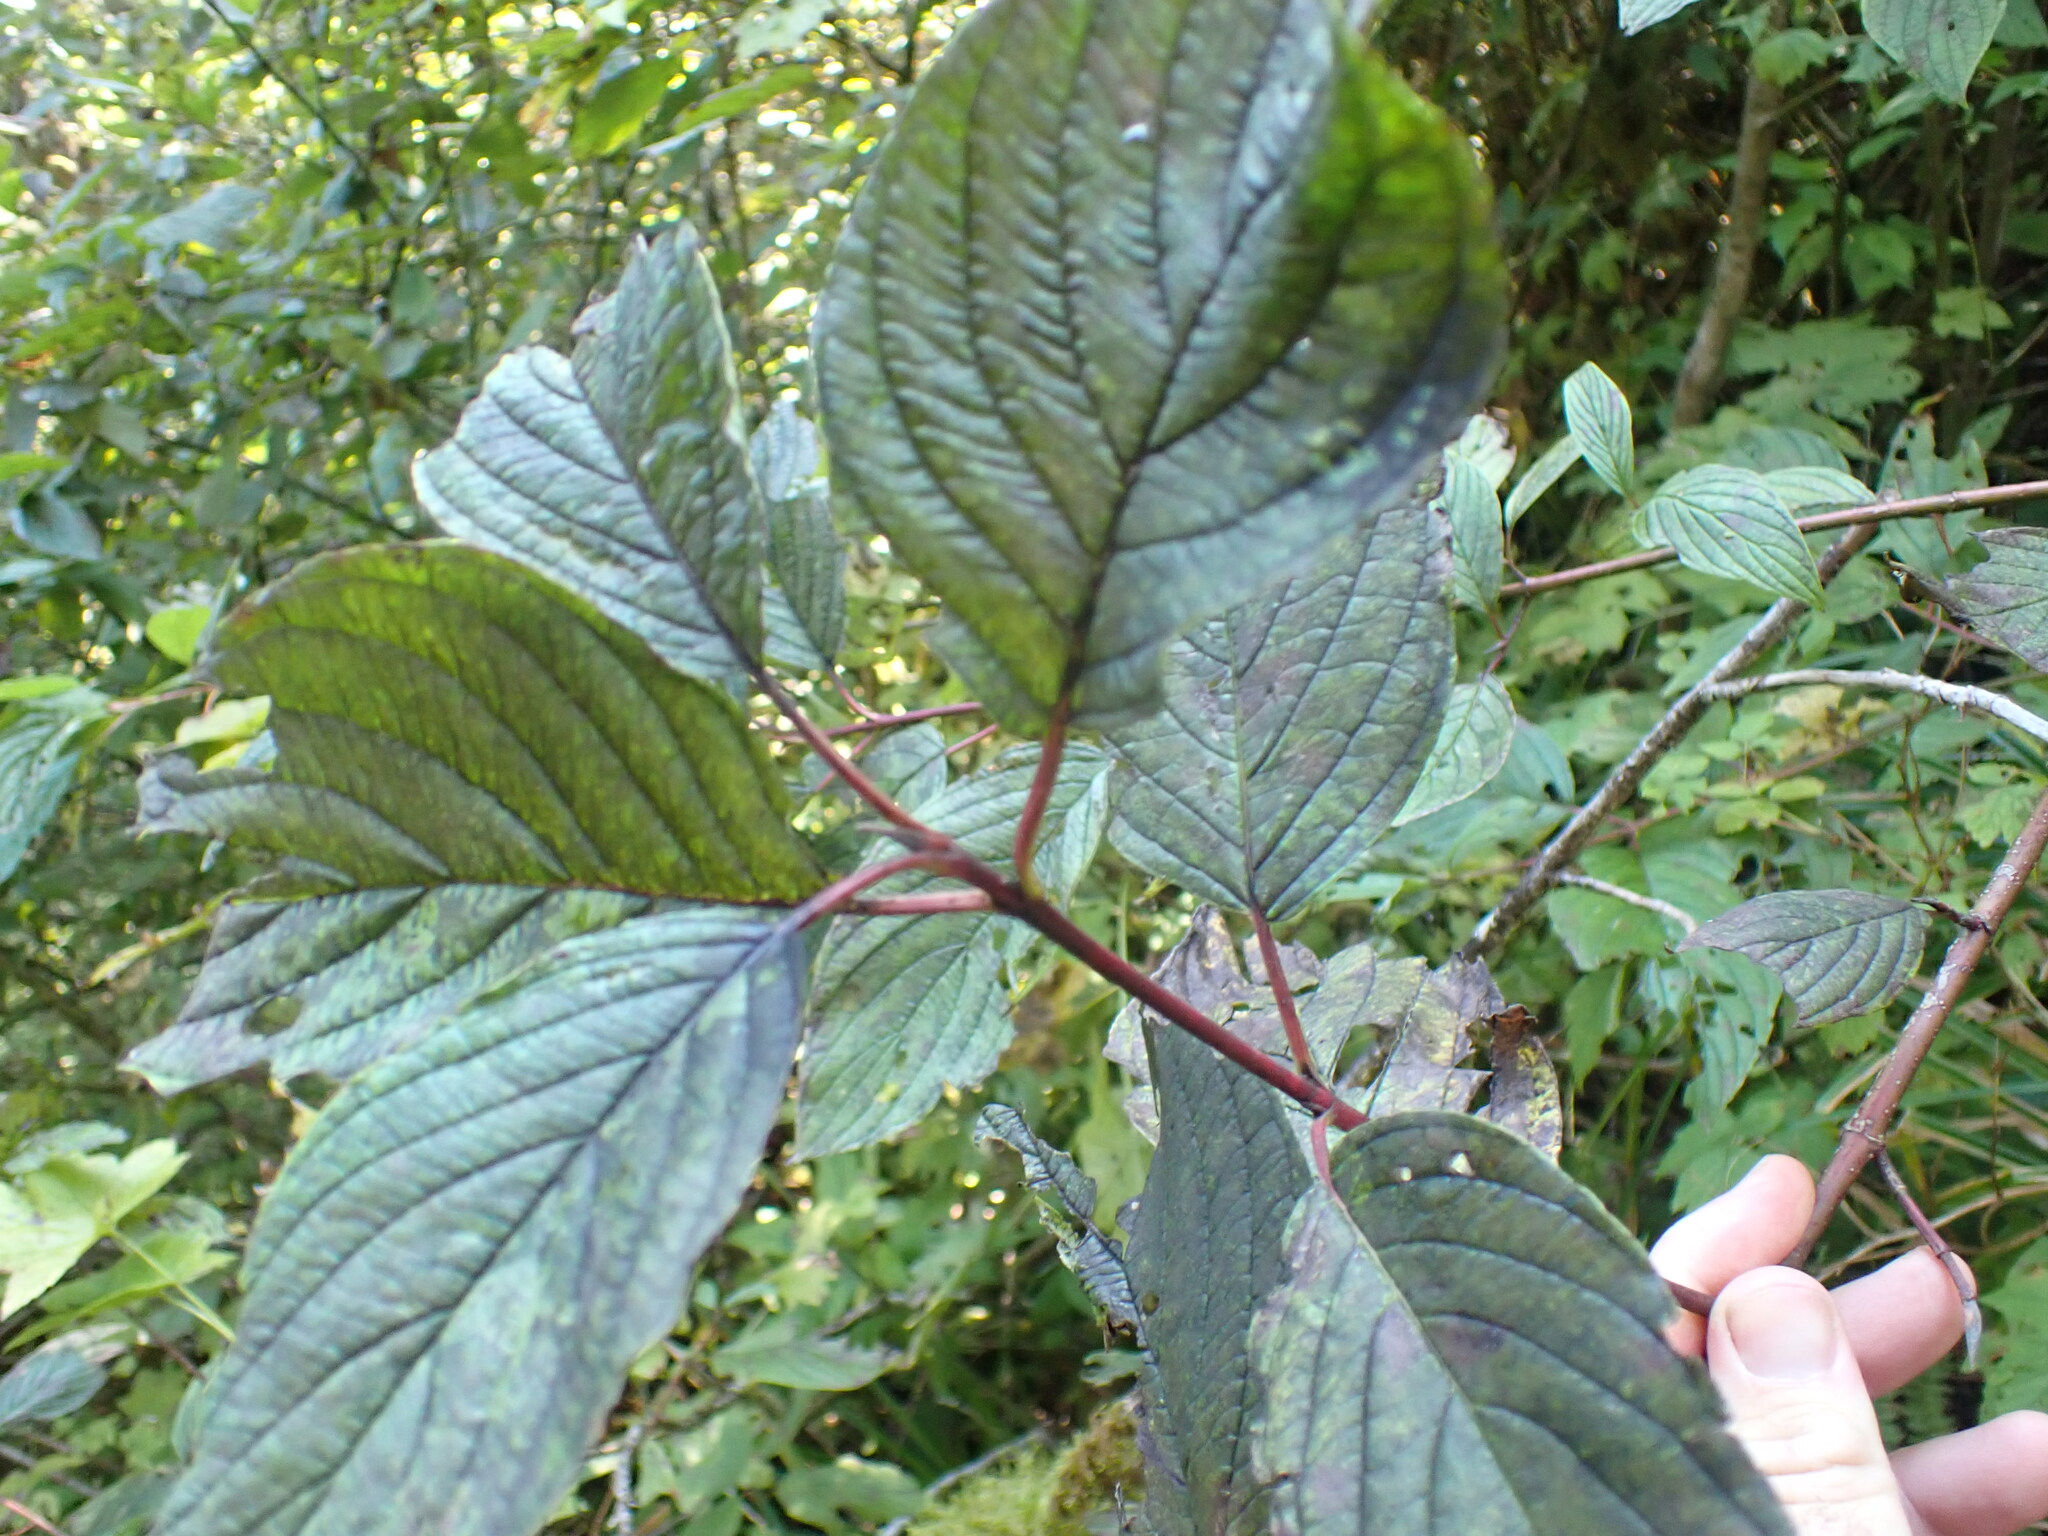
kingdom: Plantae
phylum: Tracheophyta
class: Magnoliopsida
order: Cornales
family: Cornaceae
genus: Cornus
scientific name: Cornus sericea
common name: Red-osier dogwood
